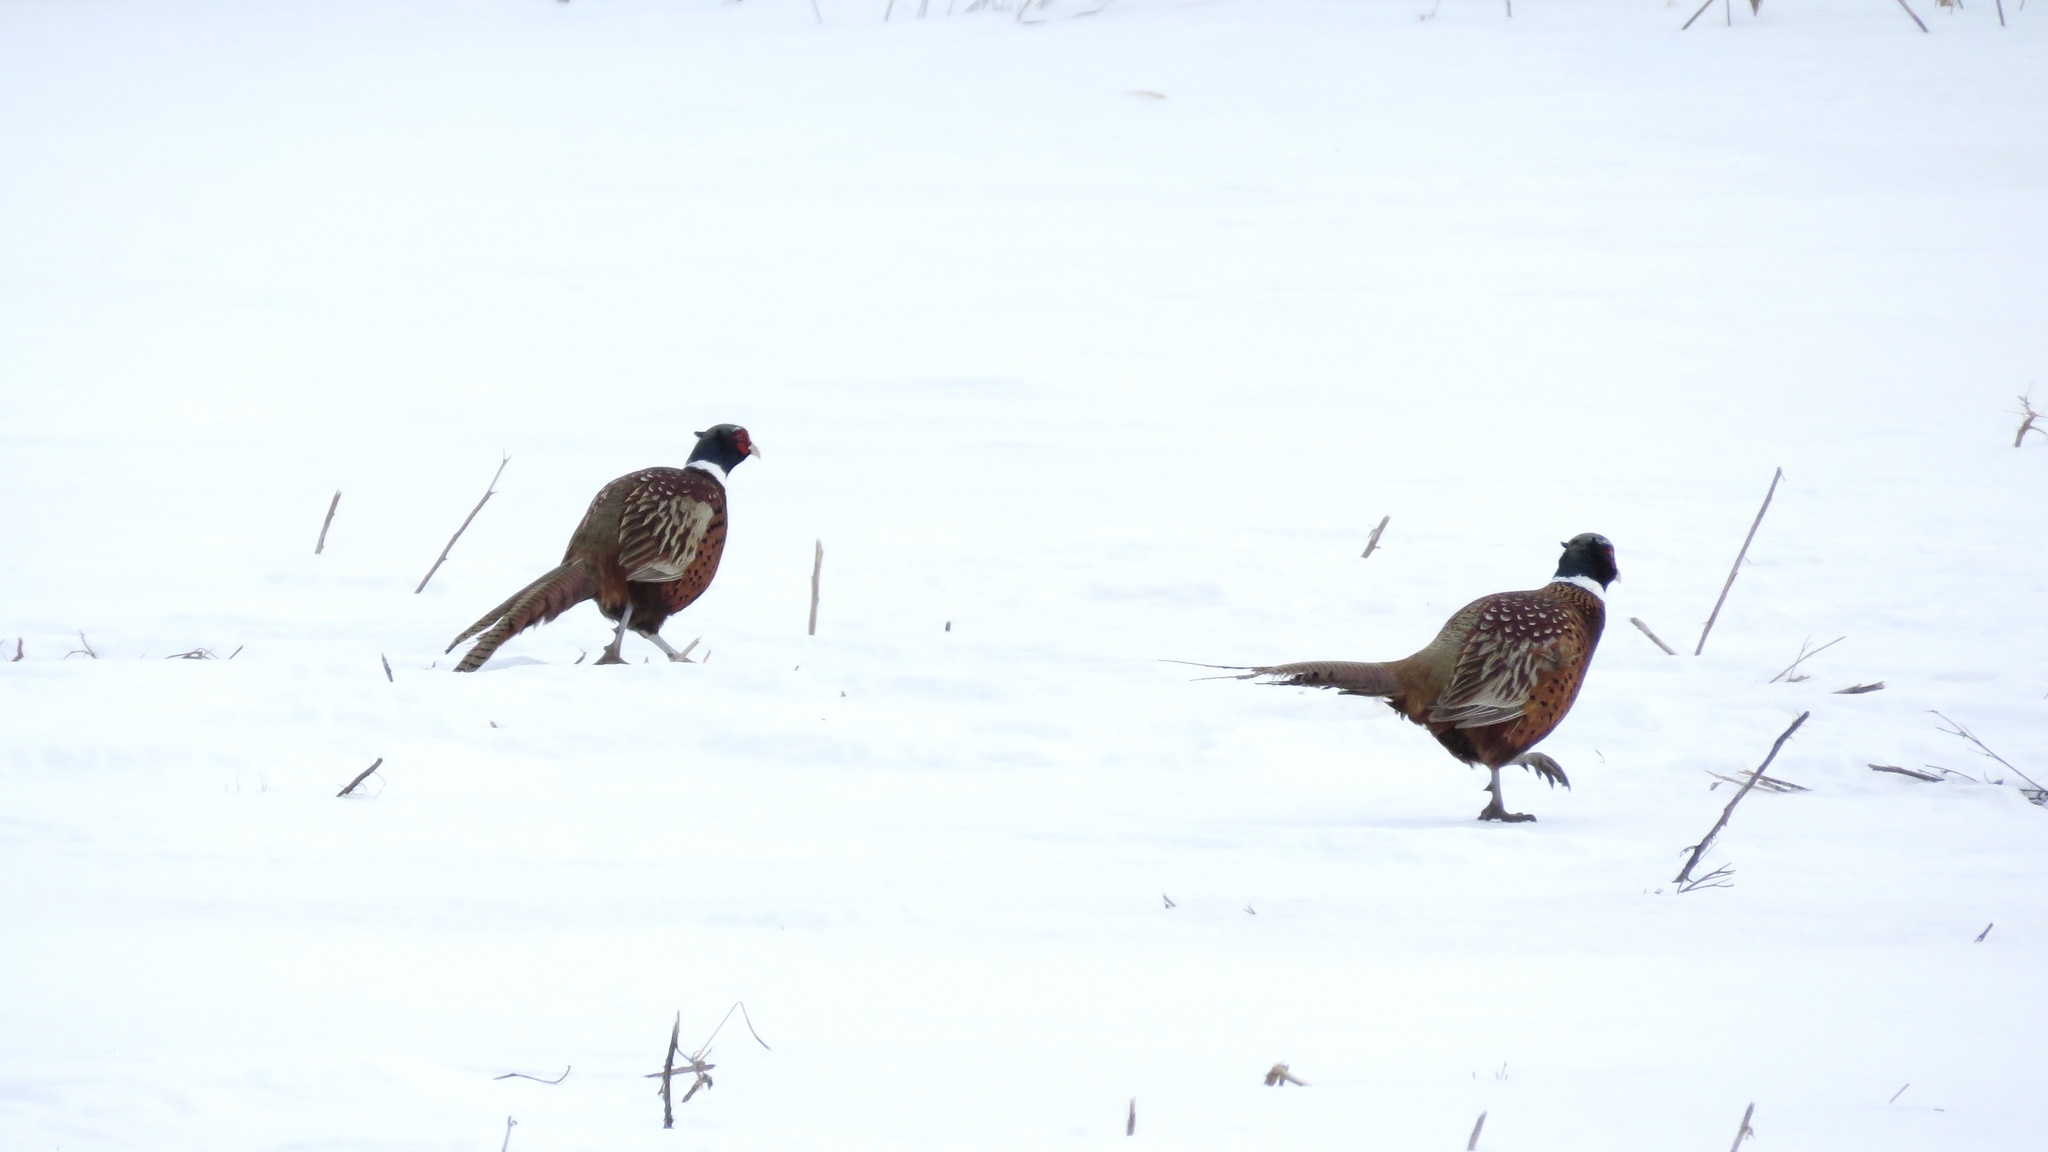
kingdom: Animalia
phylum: Chordata
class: Aves
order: Galliformes
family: Phasianidae
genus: Phasianus
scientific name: Phasianus colchicus
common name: Common pheasant
